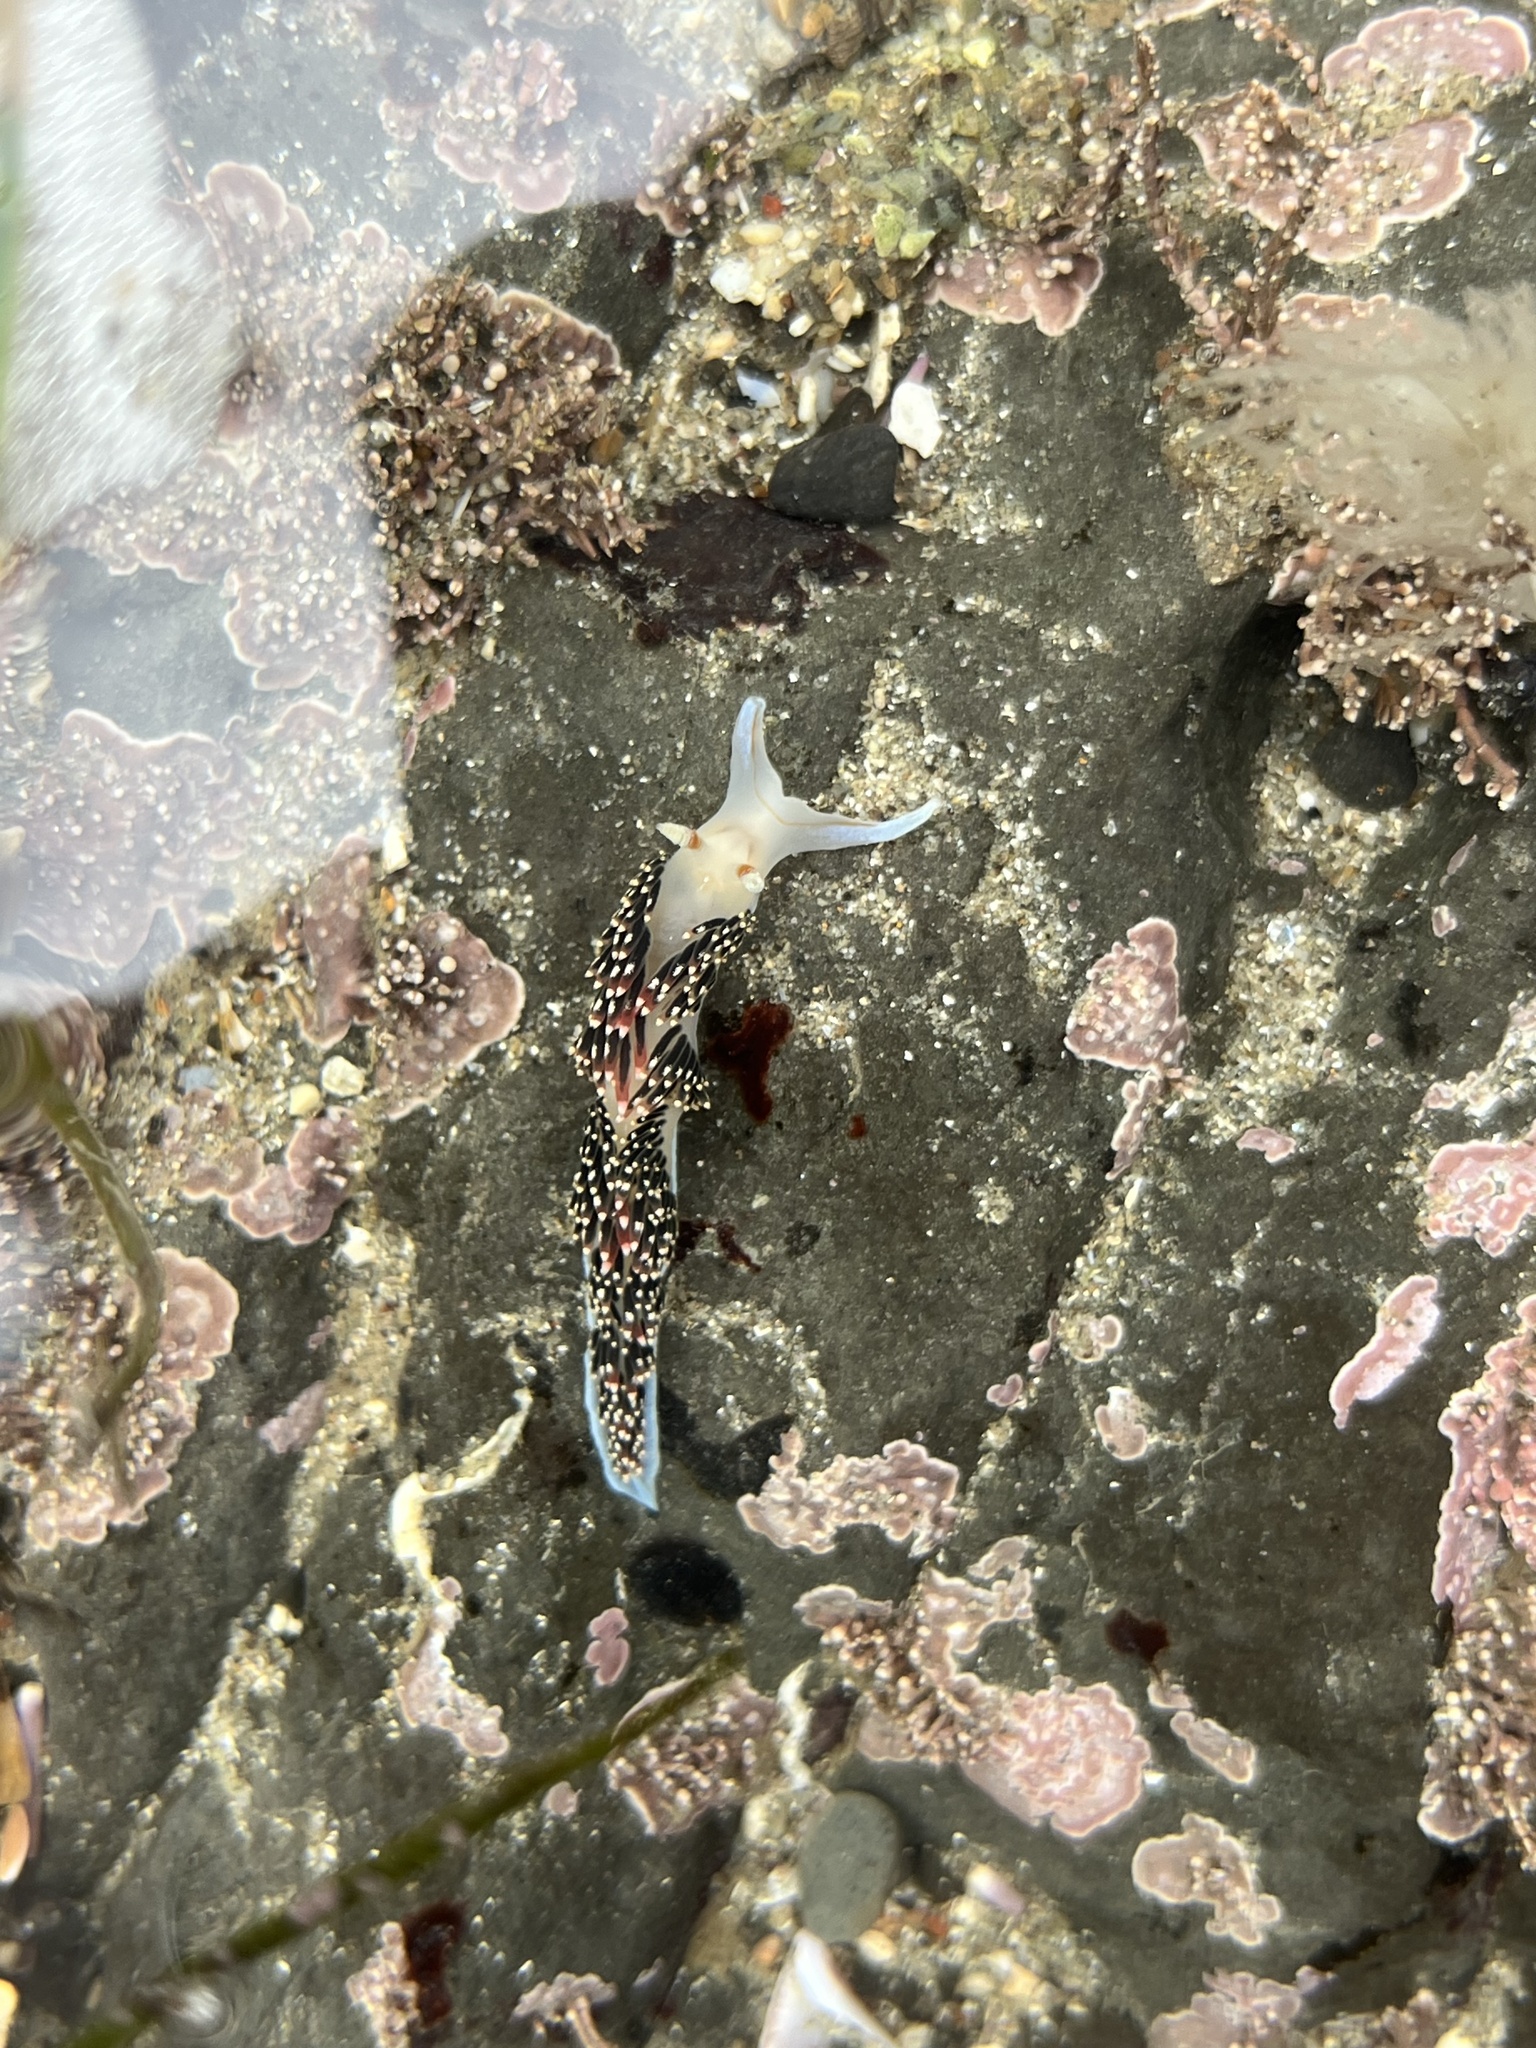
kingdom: Animalia
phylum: Mollusca
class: Gastropoda
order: Nudibranchia
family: Facelinidae
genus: Phidiana
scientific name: Phidiana hiltoni
